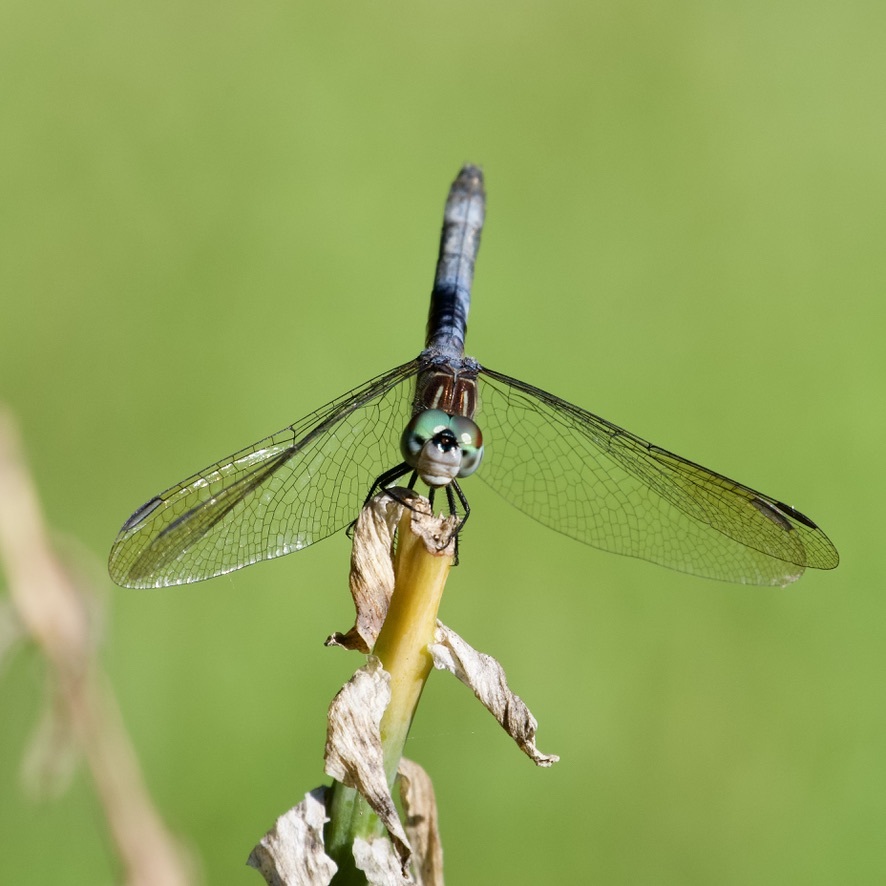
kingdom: Animalia
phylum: Arthropoda
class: Insecta
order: Odonata
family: Libellulidae
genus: Pachydiplax
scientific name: Pachydiplax longipennis
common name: Blue dasher
